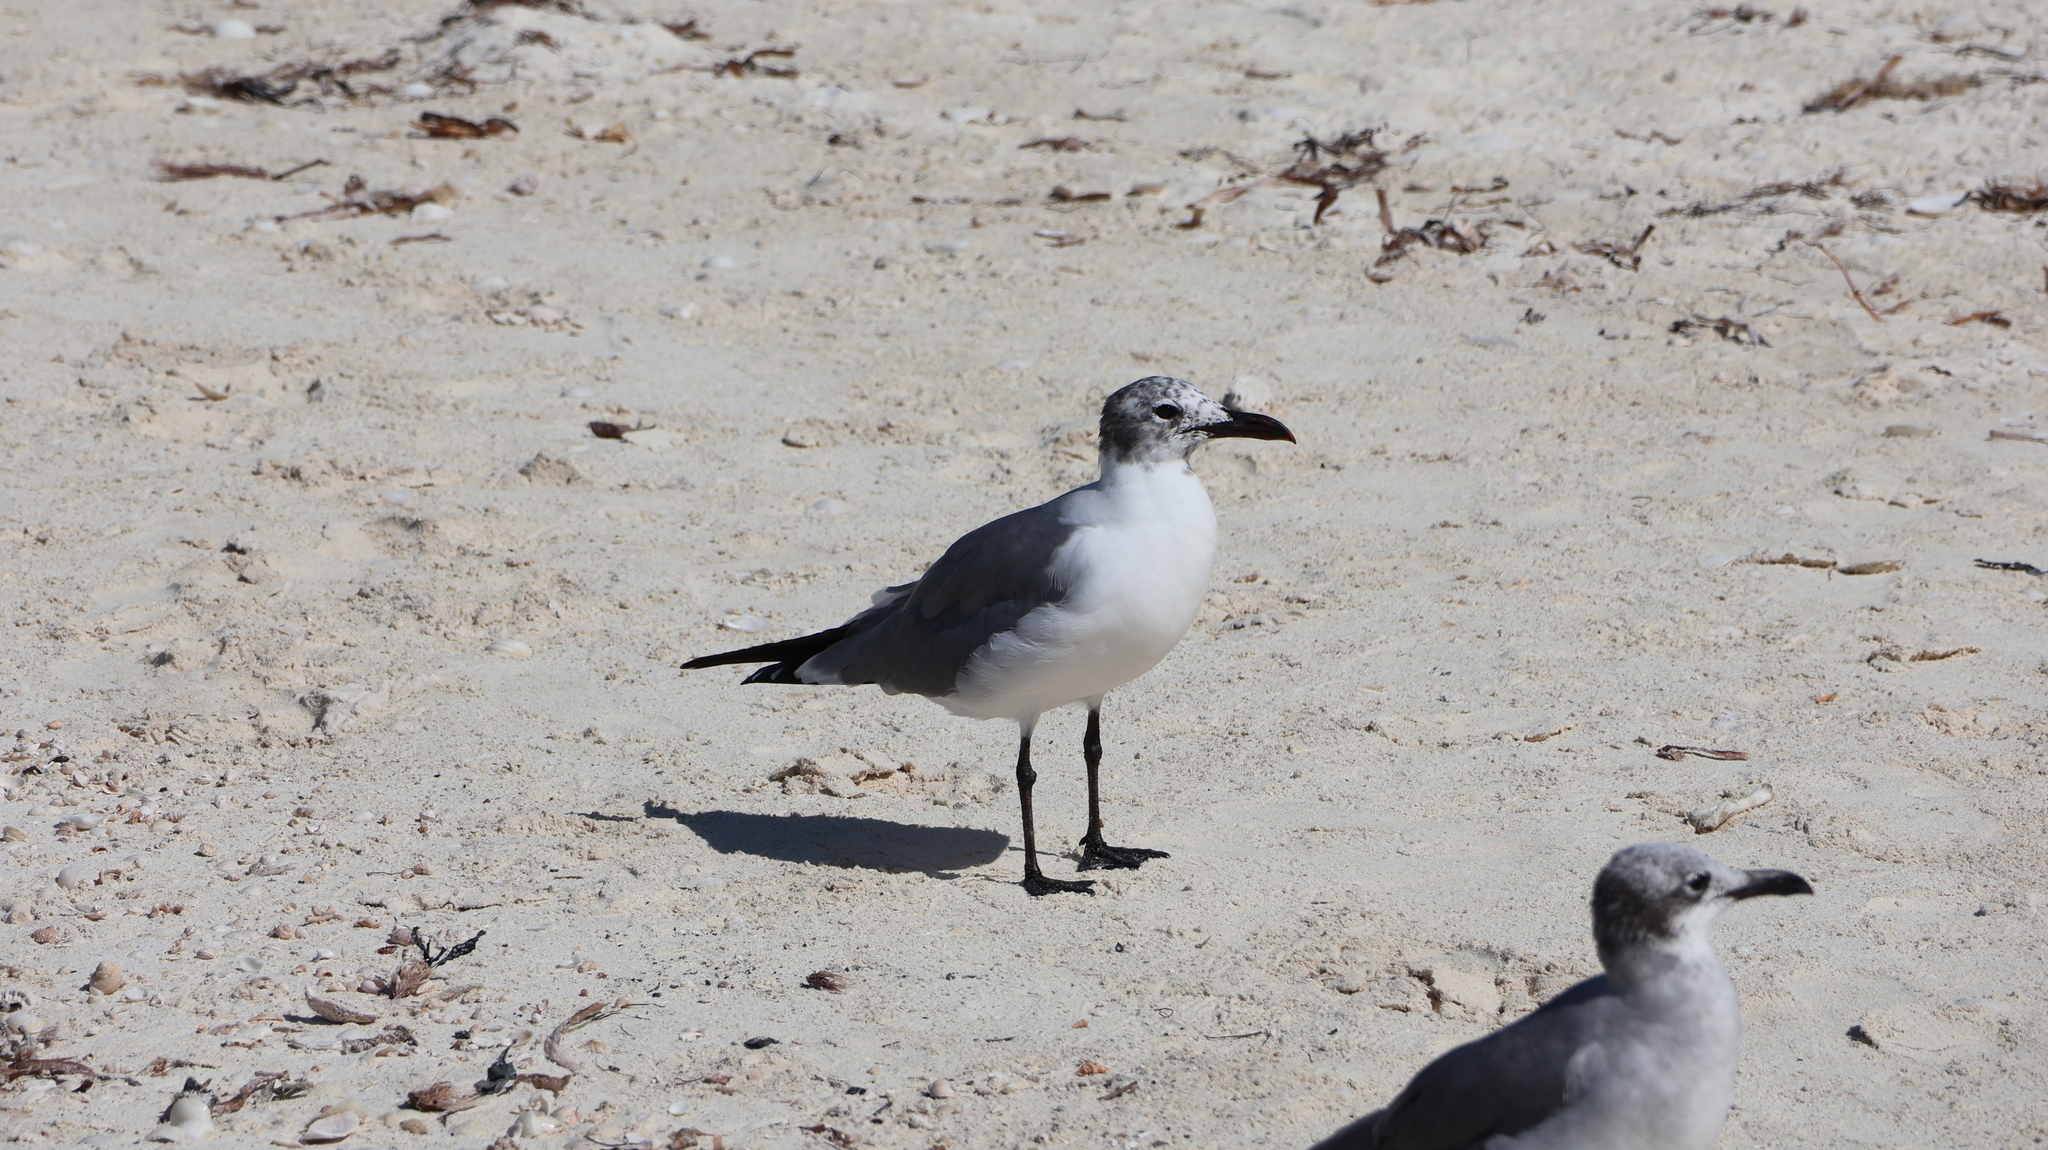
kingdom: Animalia
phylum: Chordata
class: Aves
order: Charadriiformes
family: Laridae
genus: Leucophaeus
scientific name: Leucophaeus atricilla
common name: Laughing gull
